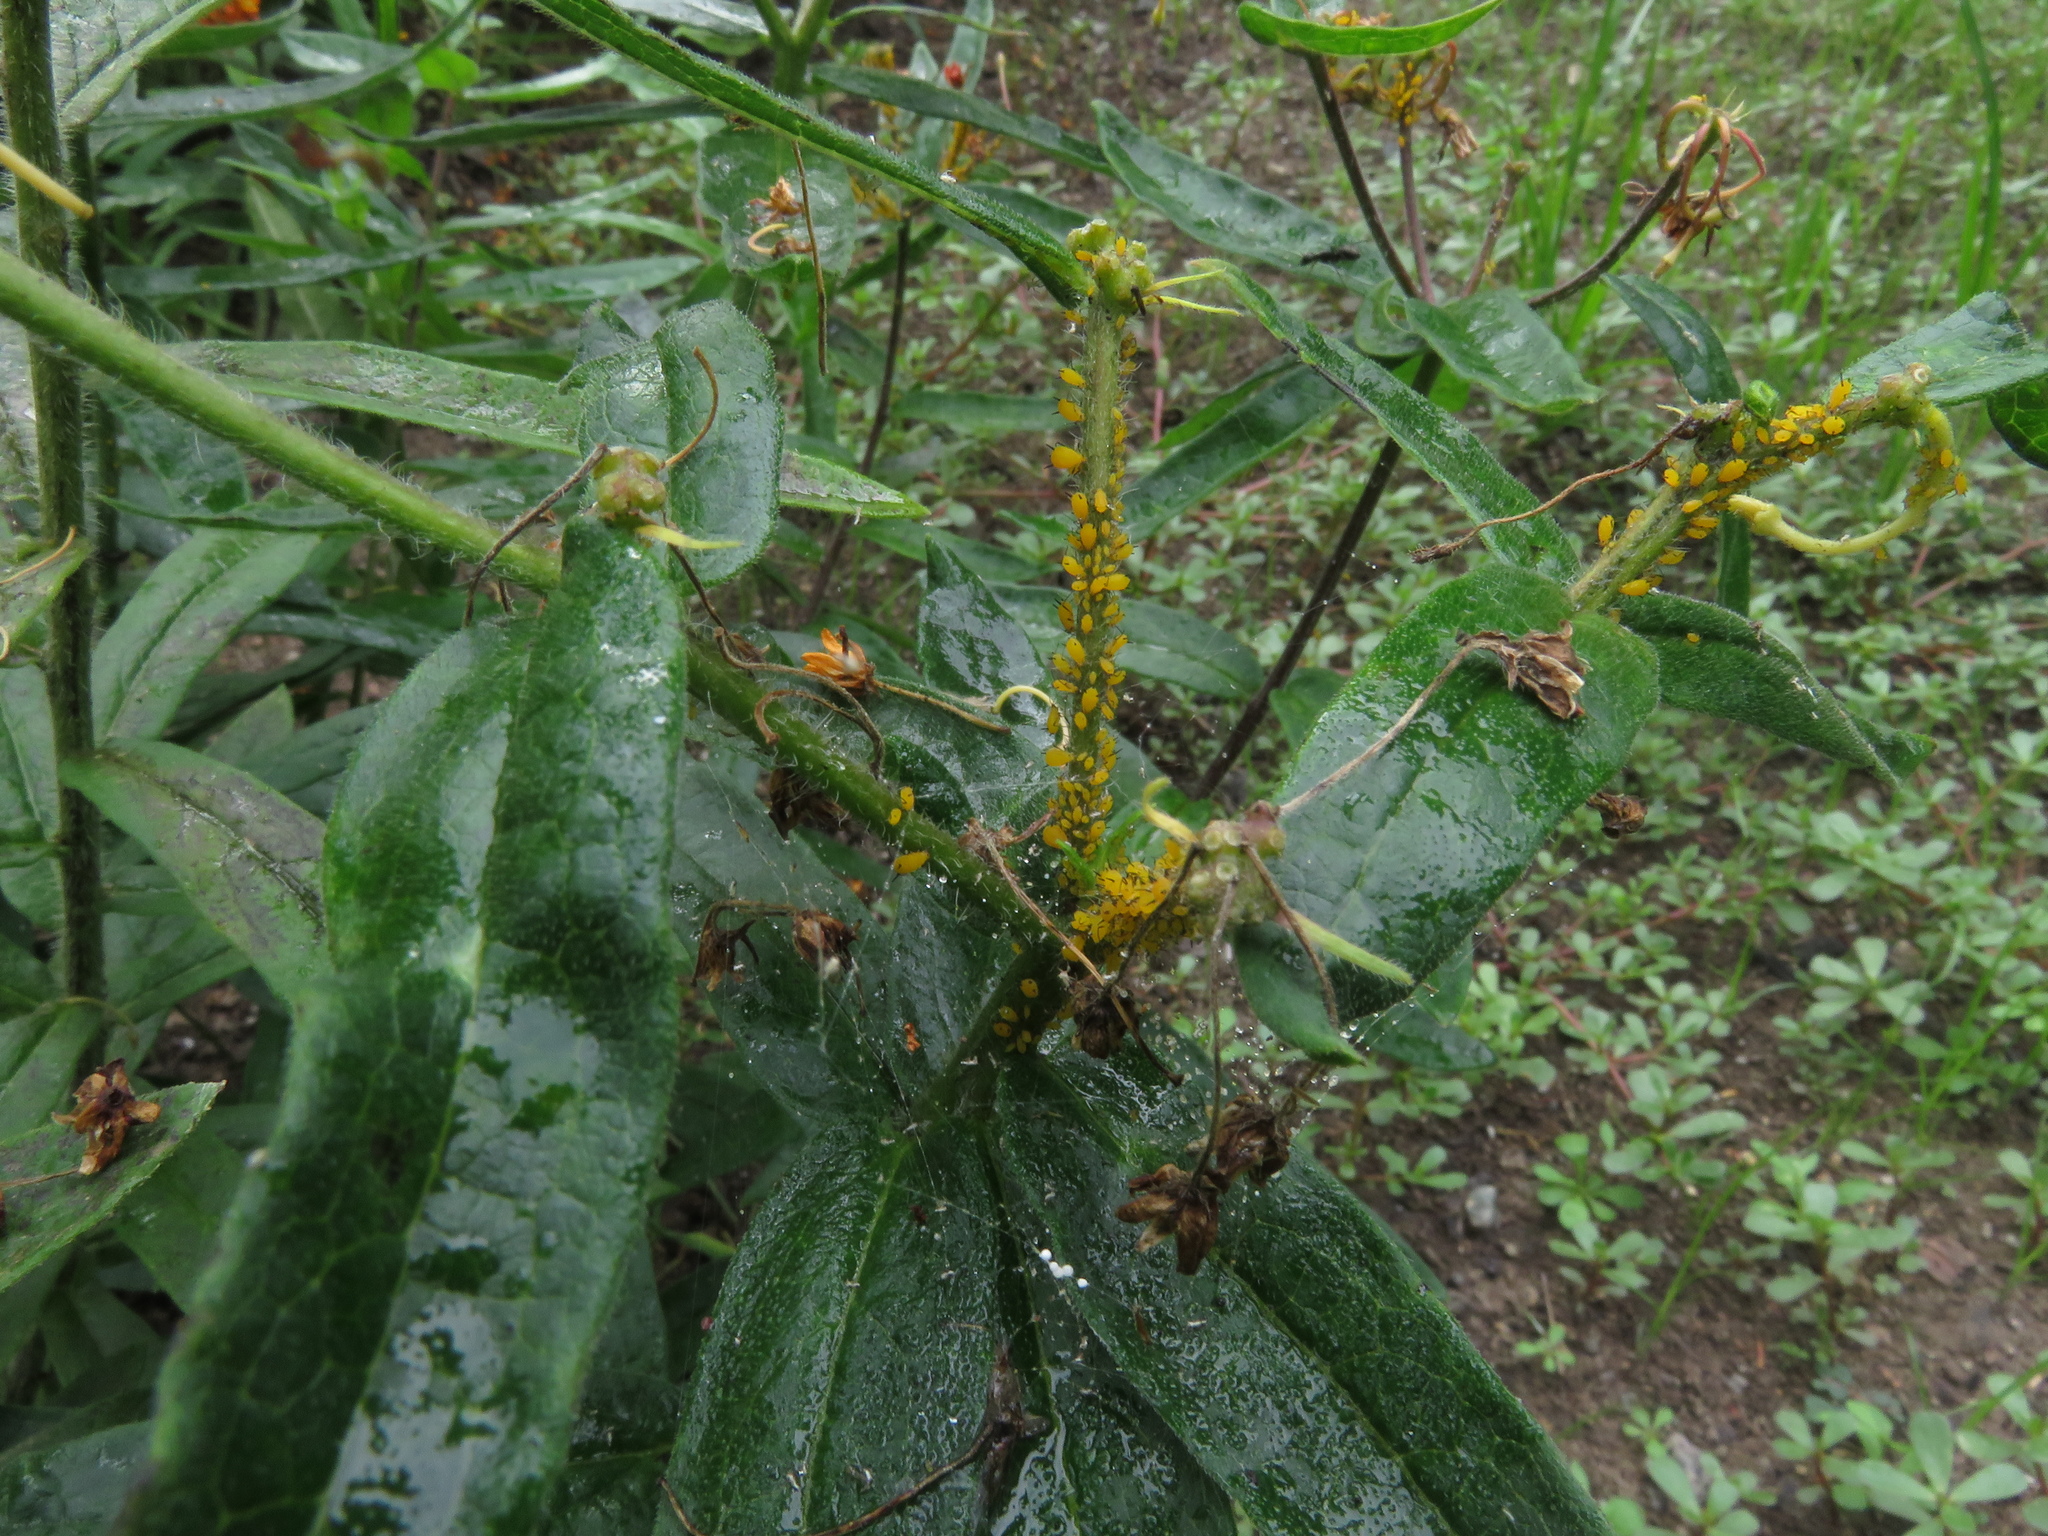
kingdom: Animalia
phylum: Arthropoda
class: Insecta
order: Hemiptera
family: Aphididae
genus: Aphis
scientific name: Aphis nerii
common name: Oleander aphid
